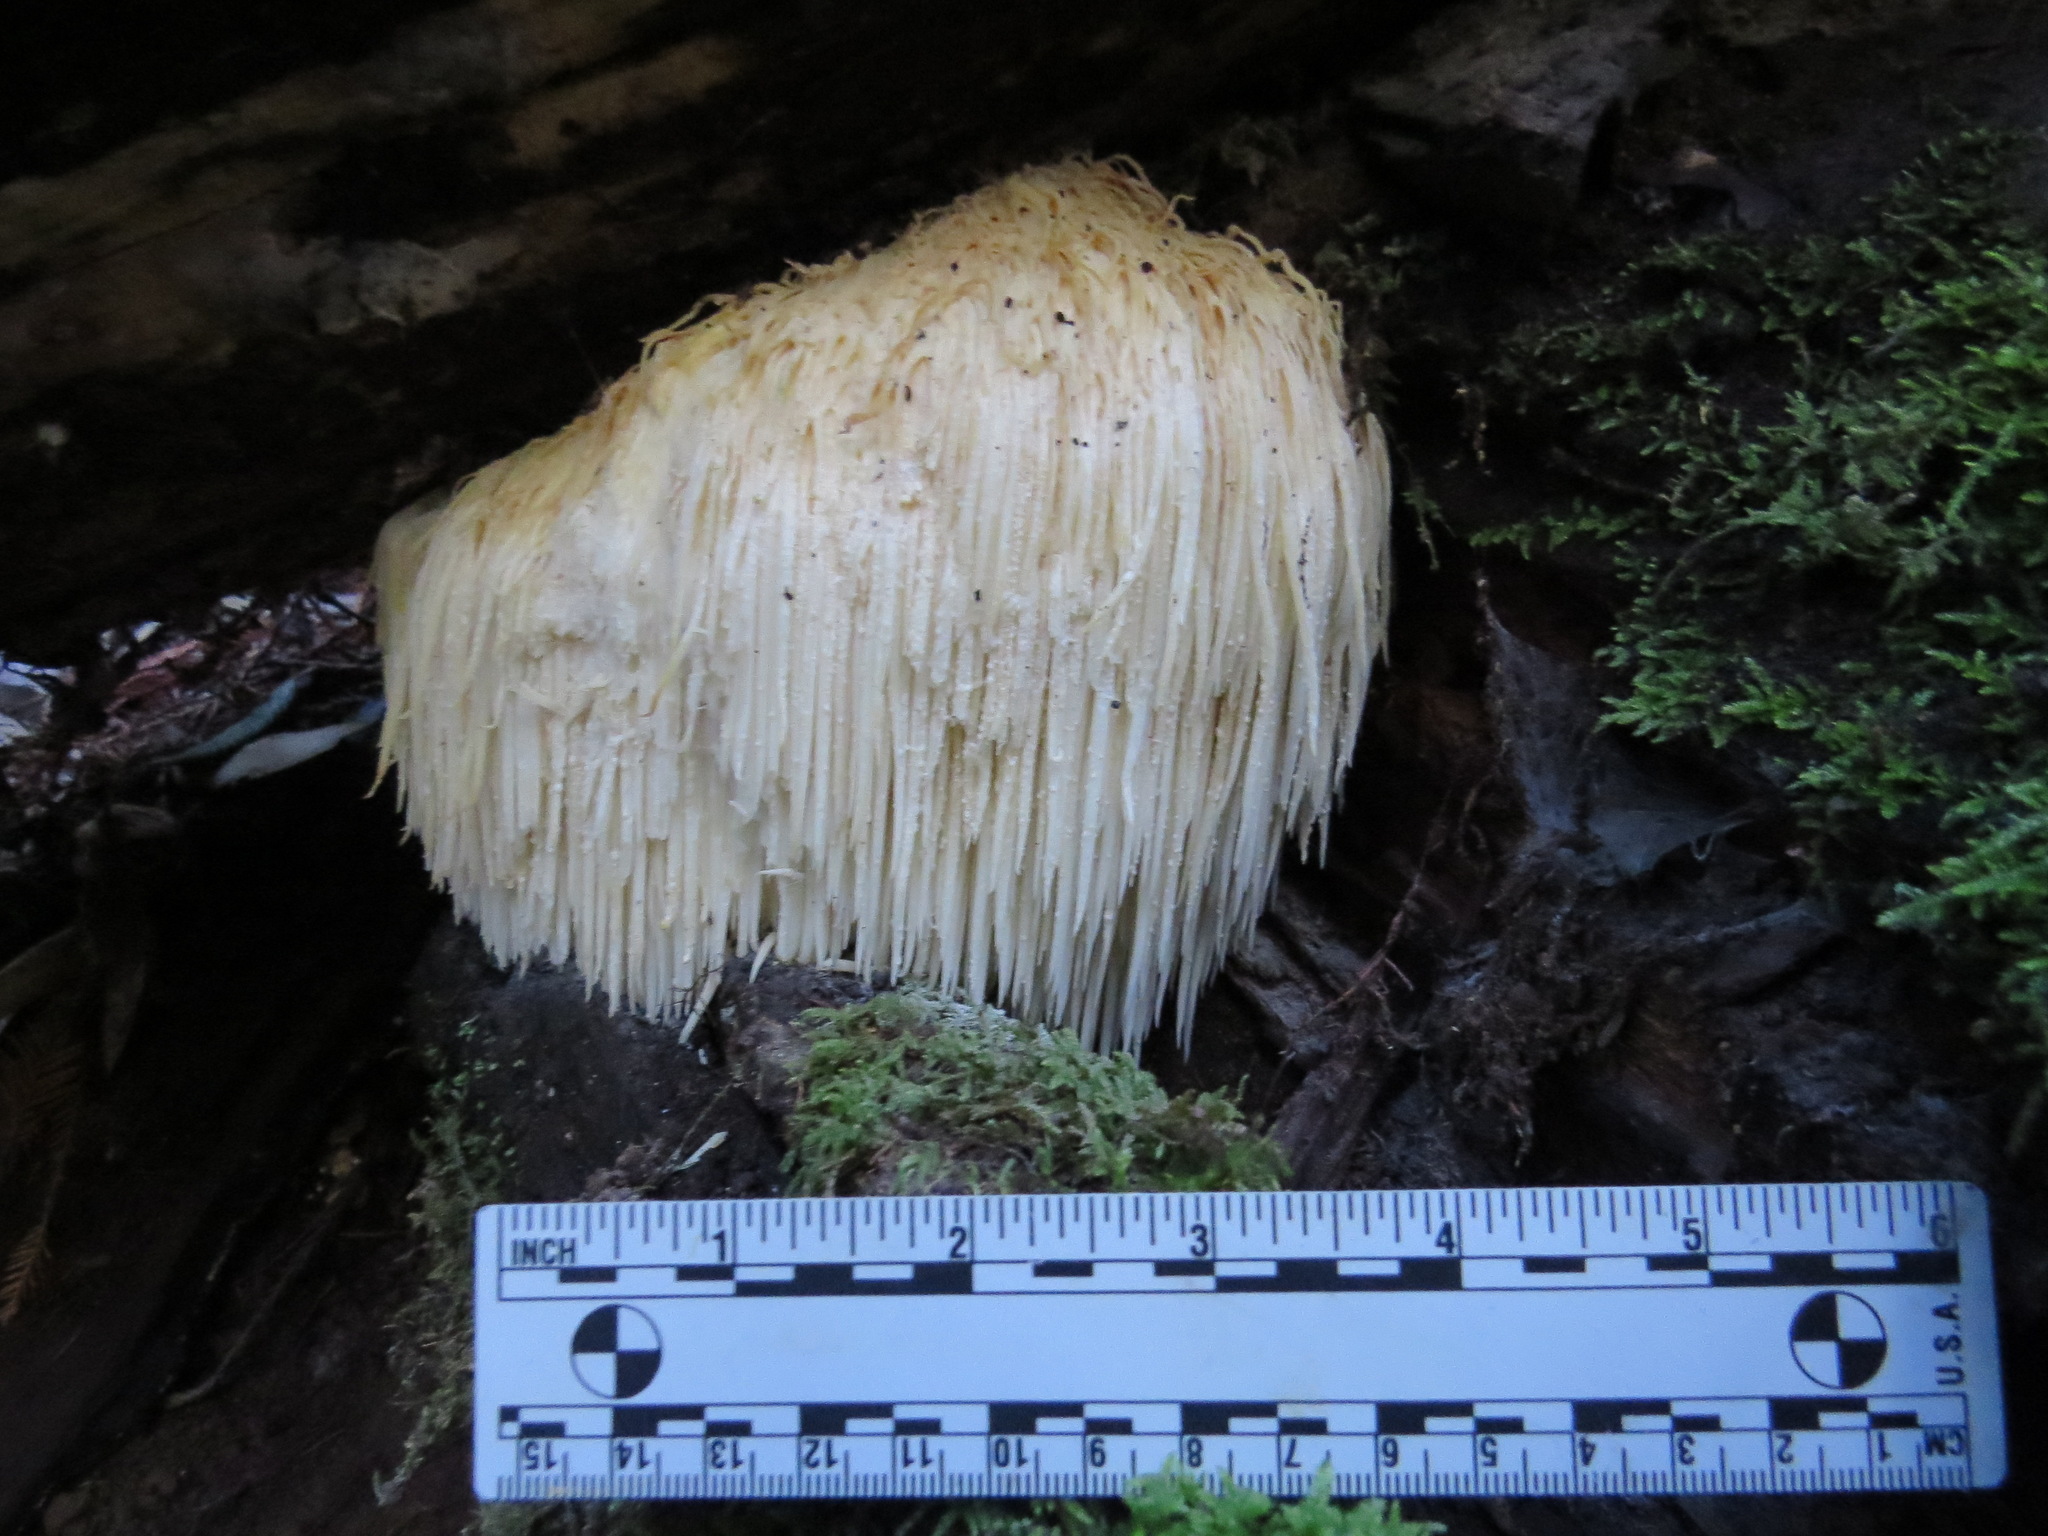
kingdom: Fungi
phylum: Basidiomycota
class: Agaricomycetes
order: Russulales
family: Hericiaceae
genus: Hericium
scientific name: Hericium erinaceus
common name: Bearded tooth
